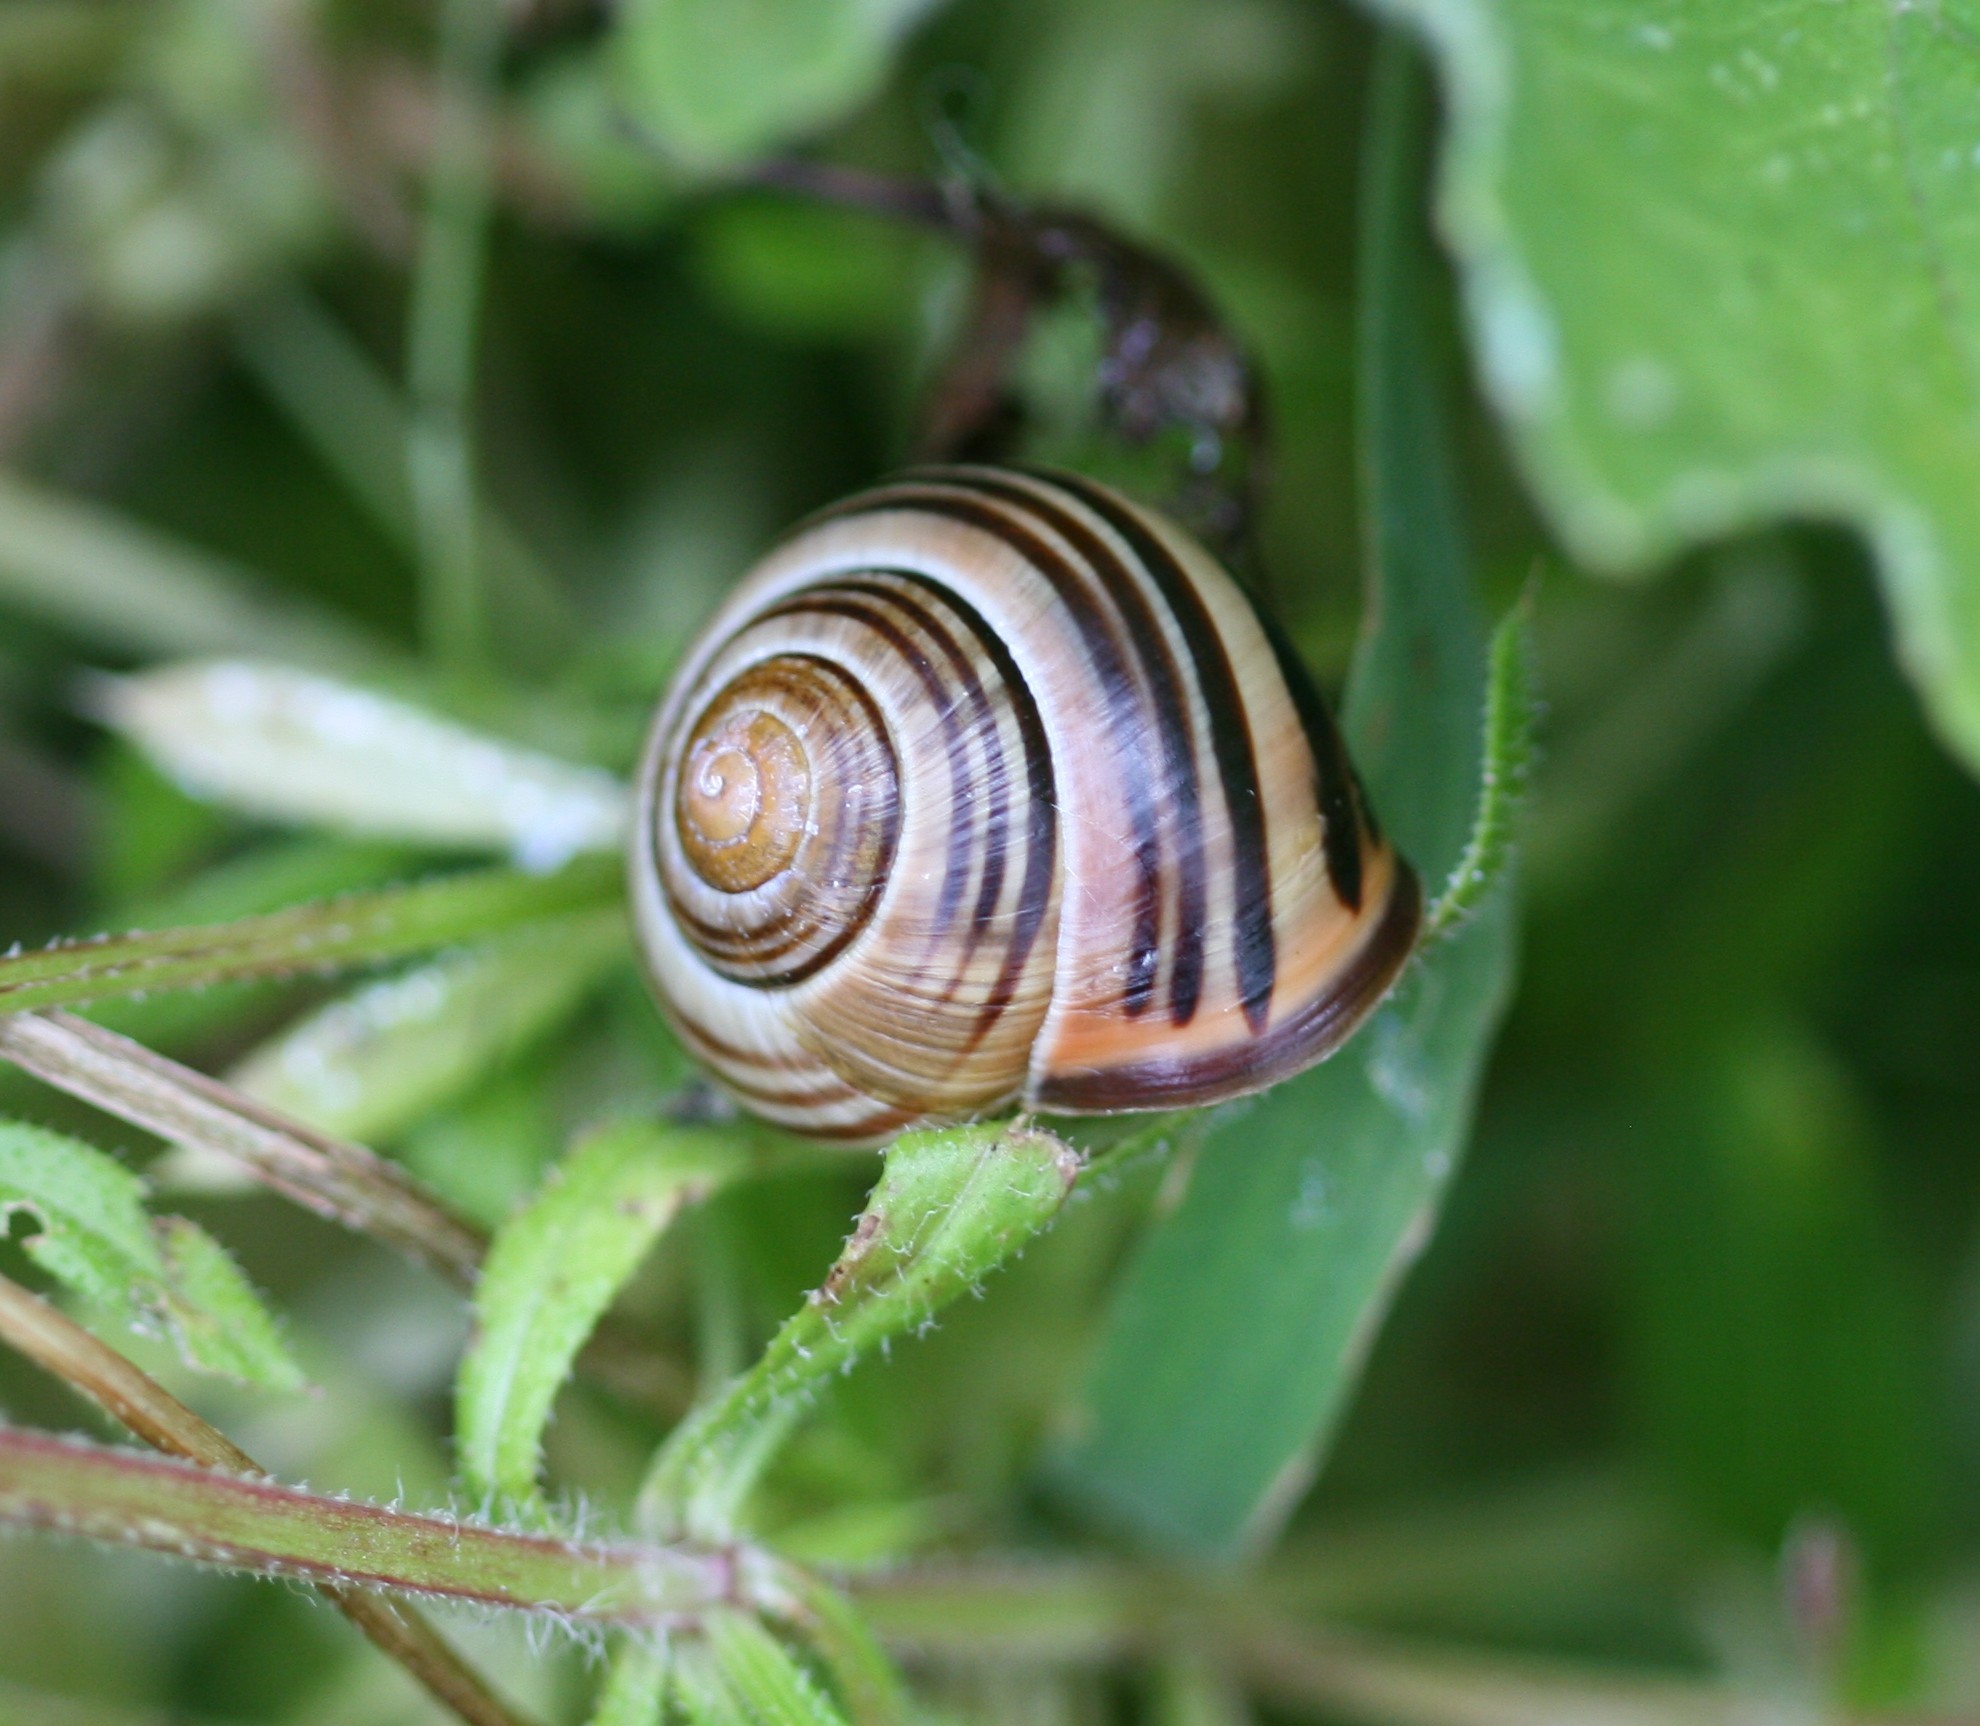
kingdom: Animalia
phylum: Mollusca
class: Gastropoda
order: Stylommatophora
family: Helicidae
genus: Cepaea
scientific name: Cepaea nemoralis
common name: Grovesnail
